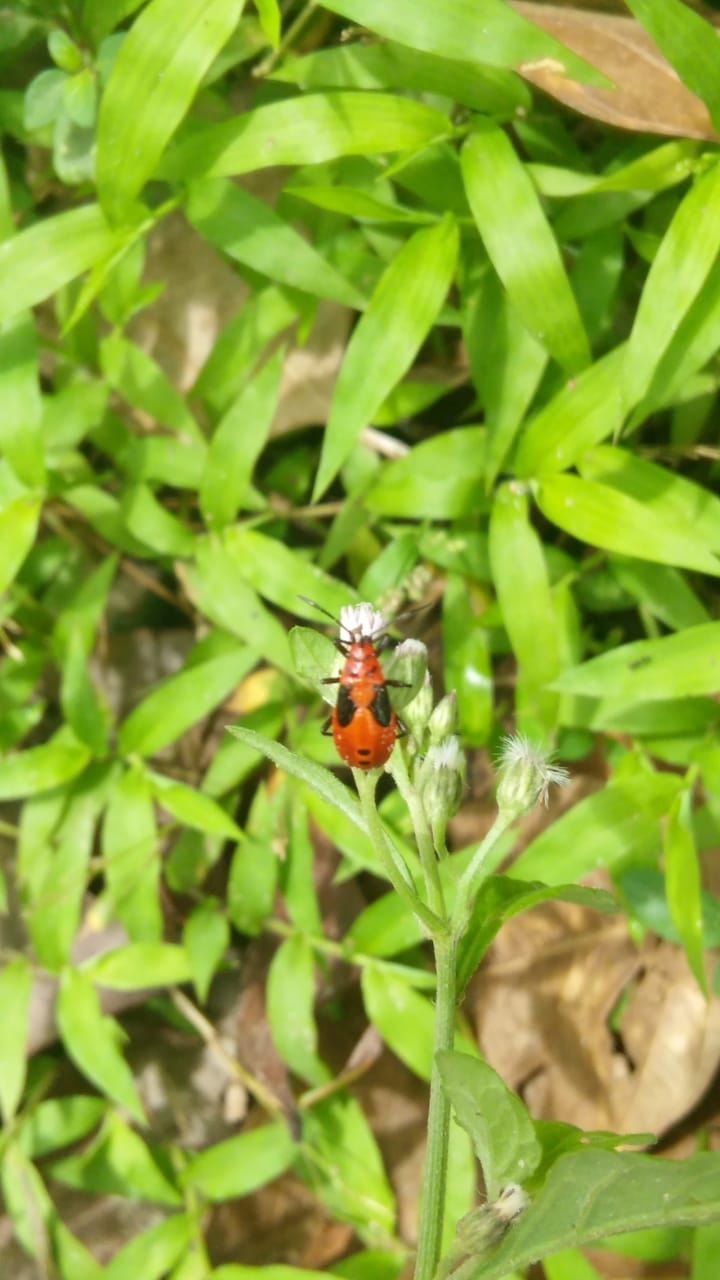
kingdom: Animalia
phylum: Arthropoda
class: Insecta
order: Hemiptera
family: Lygaeidae
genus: Spilostethus
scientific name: Spilostethus hospes
